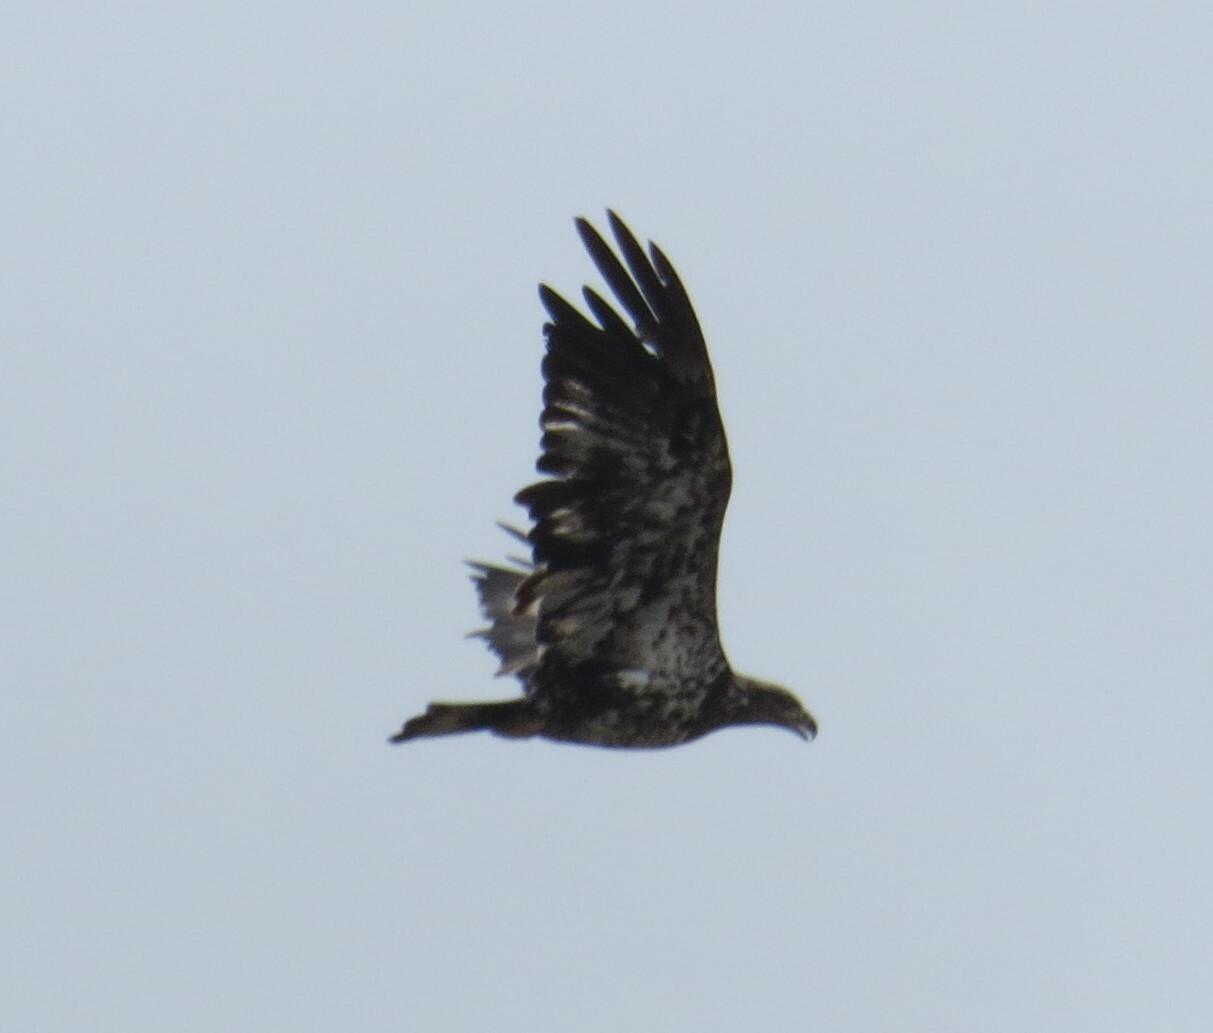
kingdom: Animalia
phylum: Chordata
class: Aves
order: Accipitriformes
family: Accipitridae
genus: Haliaeetus
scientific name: Haliaeetus leucocephalus
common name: Bald eagle
